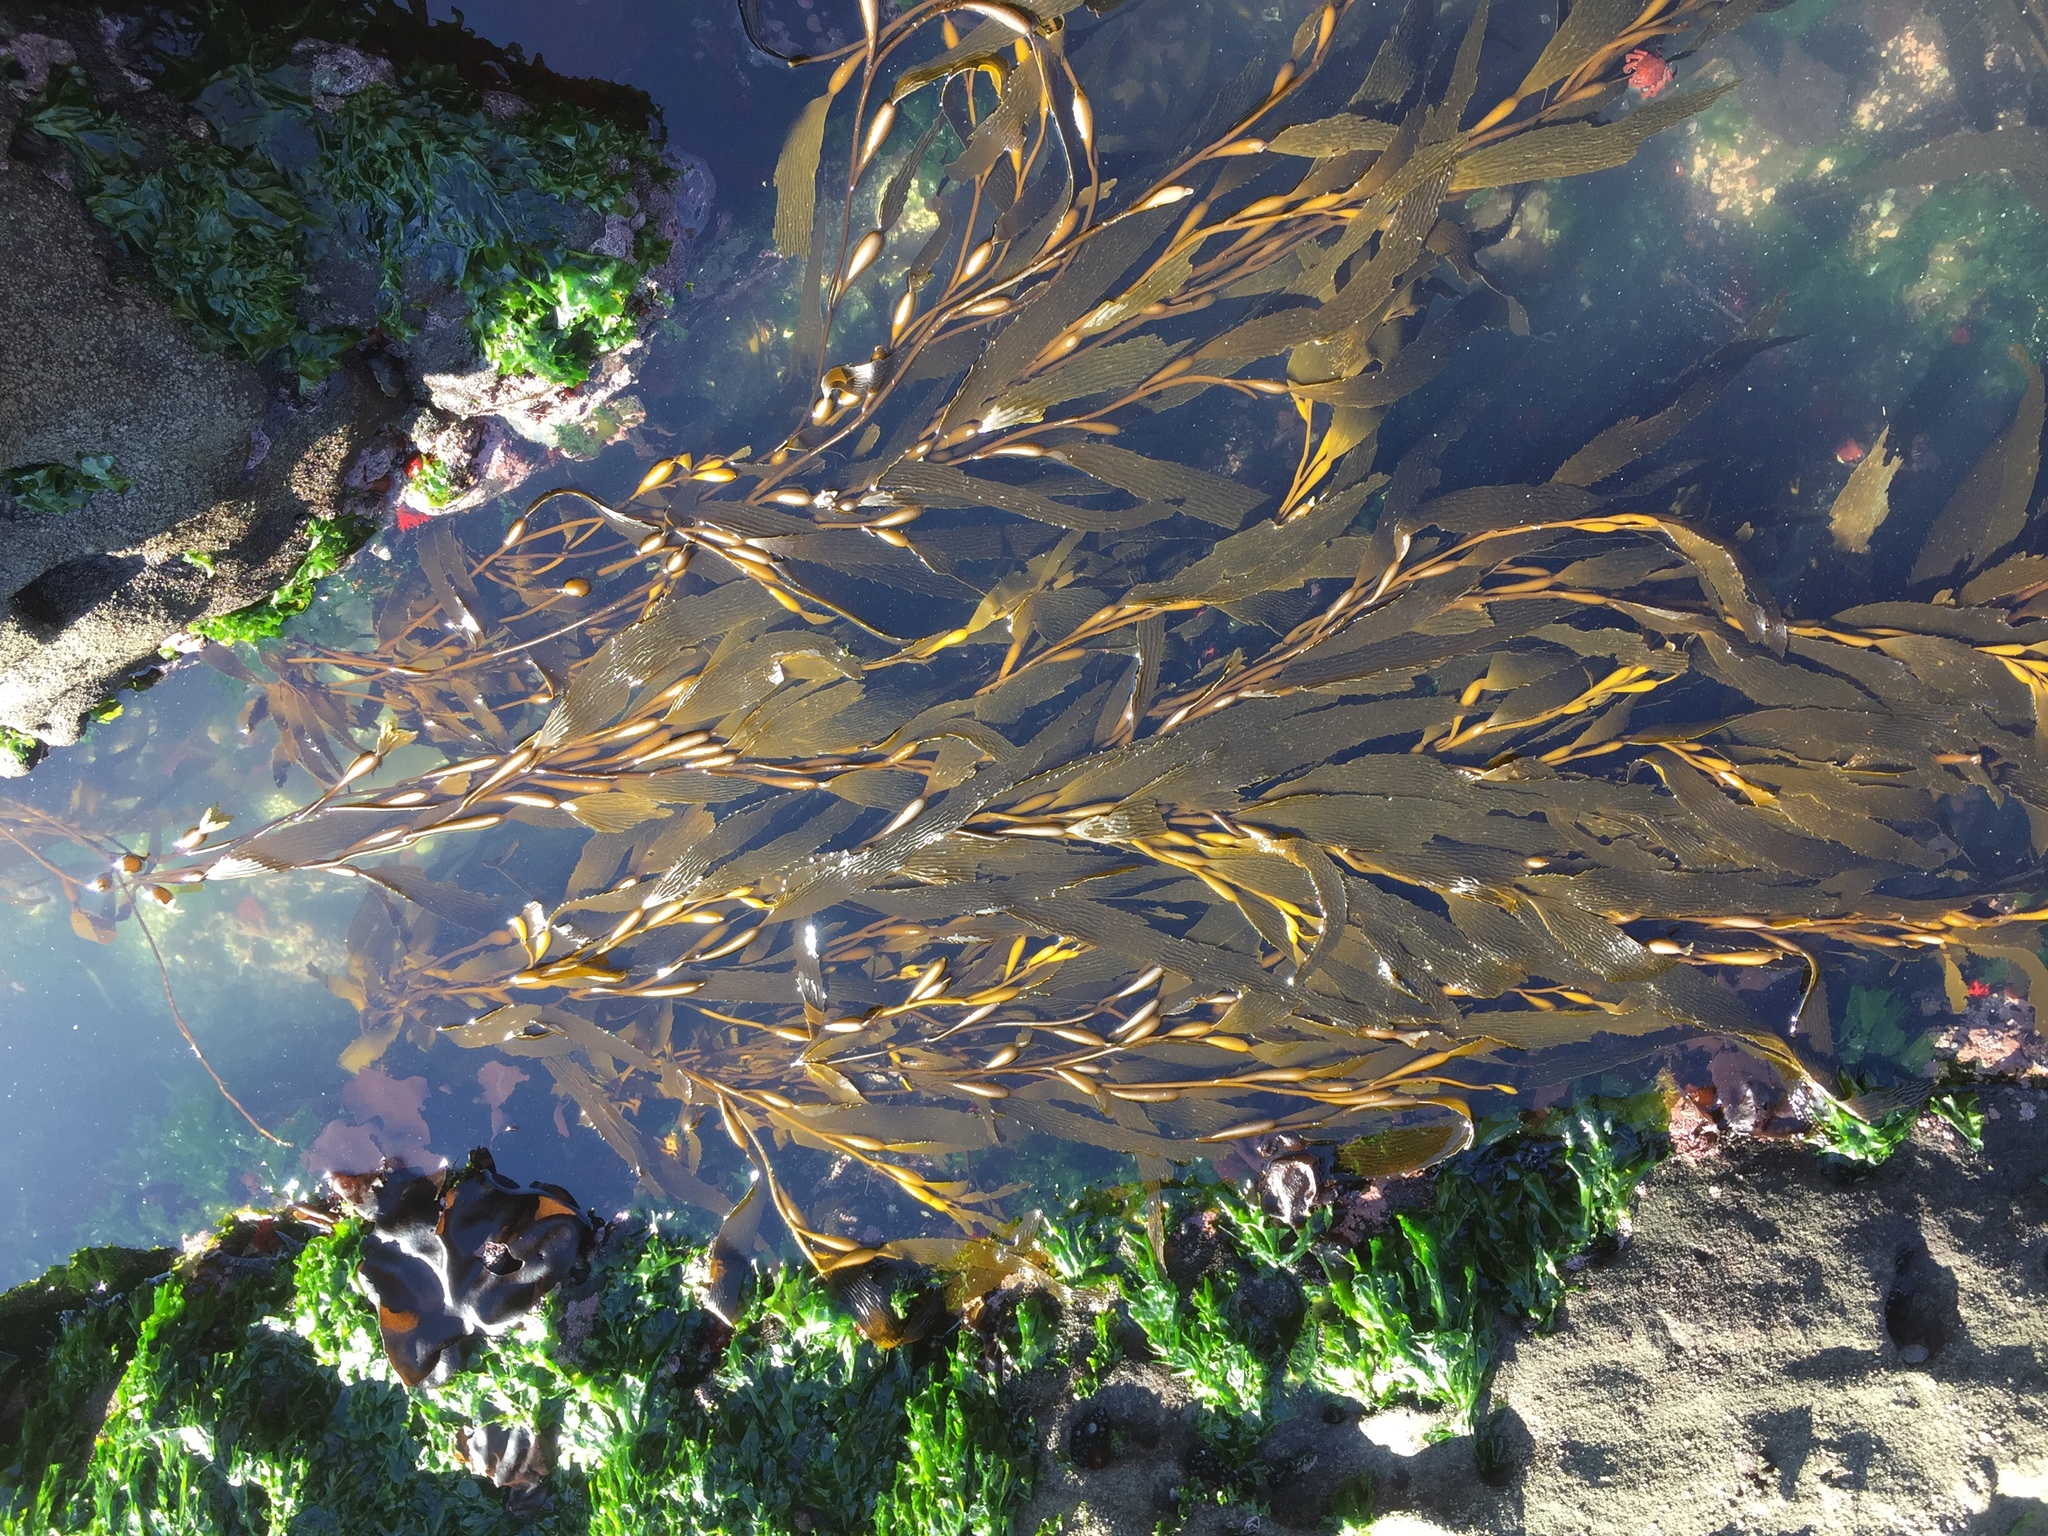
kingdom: Chromista
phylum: Ochrophyta
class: Phaeophyceae
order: Laminariales
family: Laminariaceae
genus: Macrocystis
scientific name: Macrocystis pyrifera
